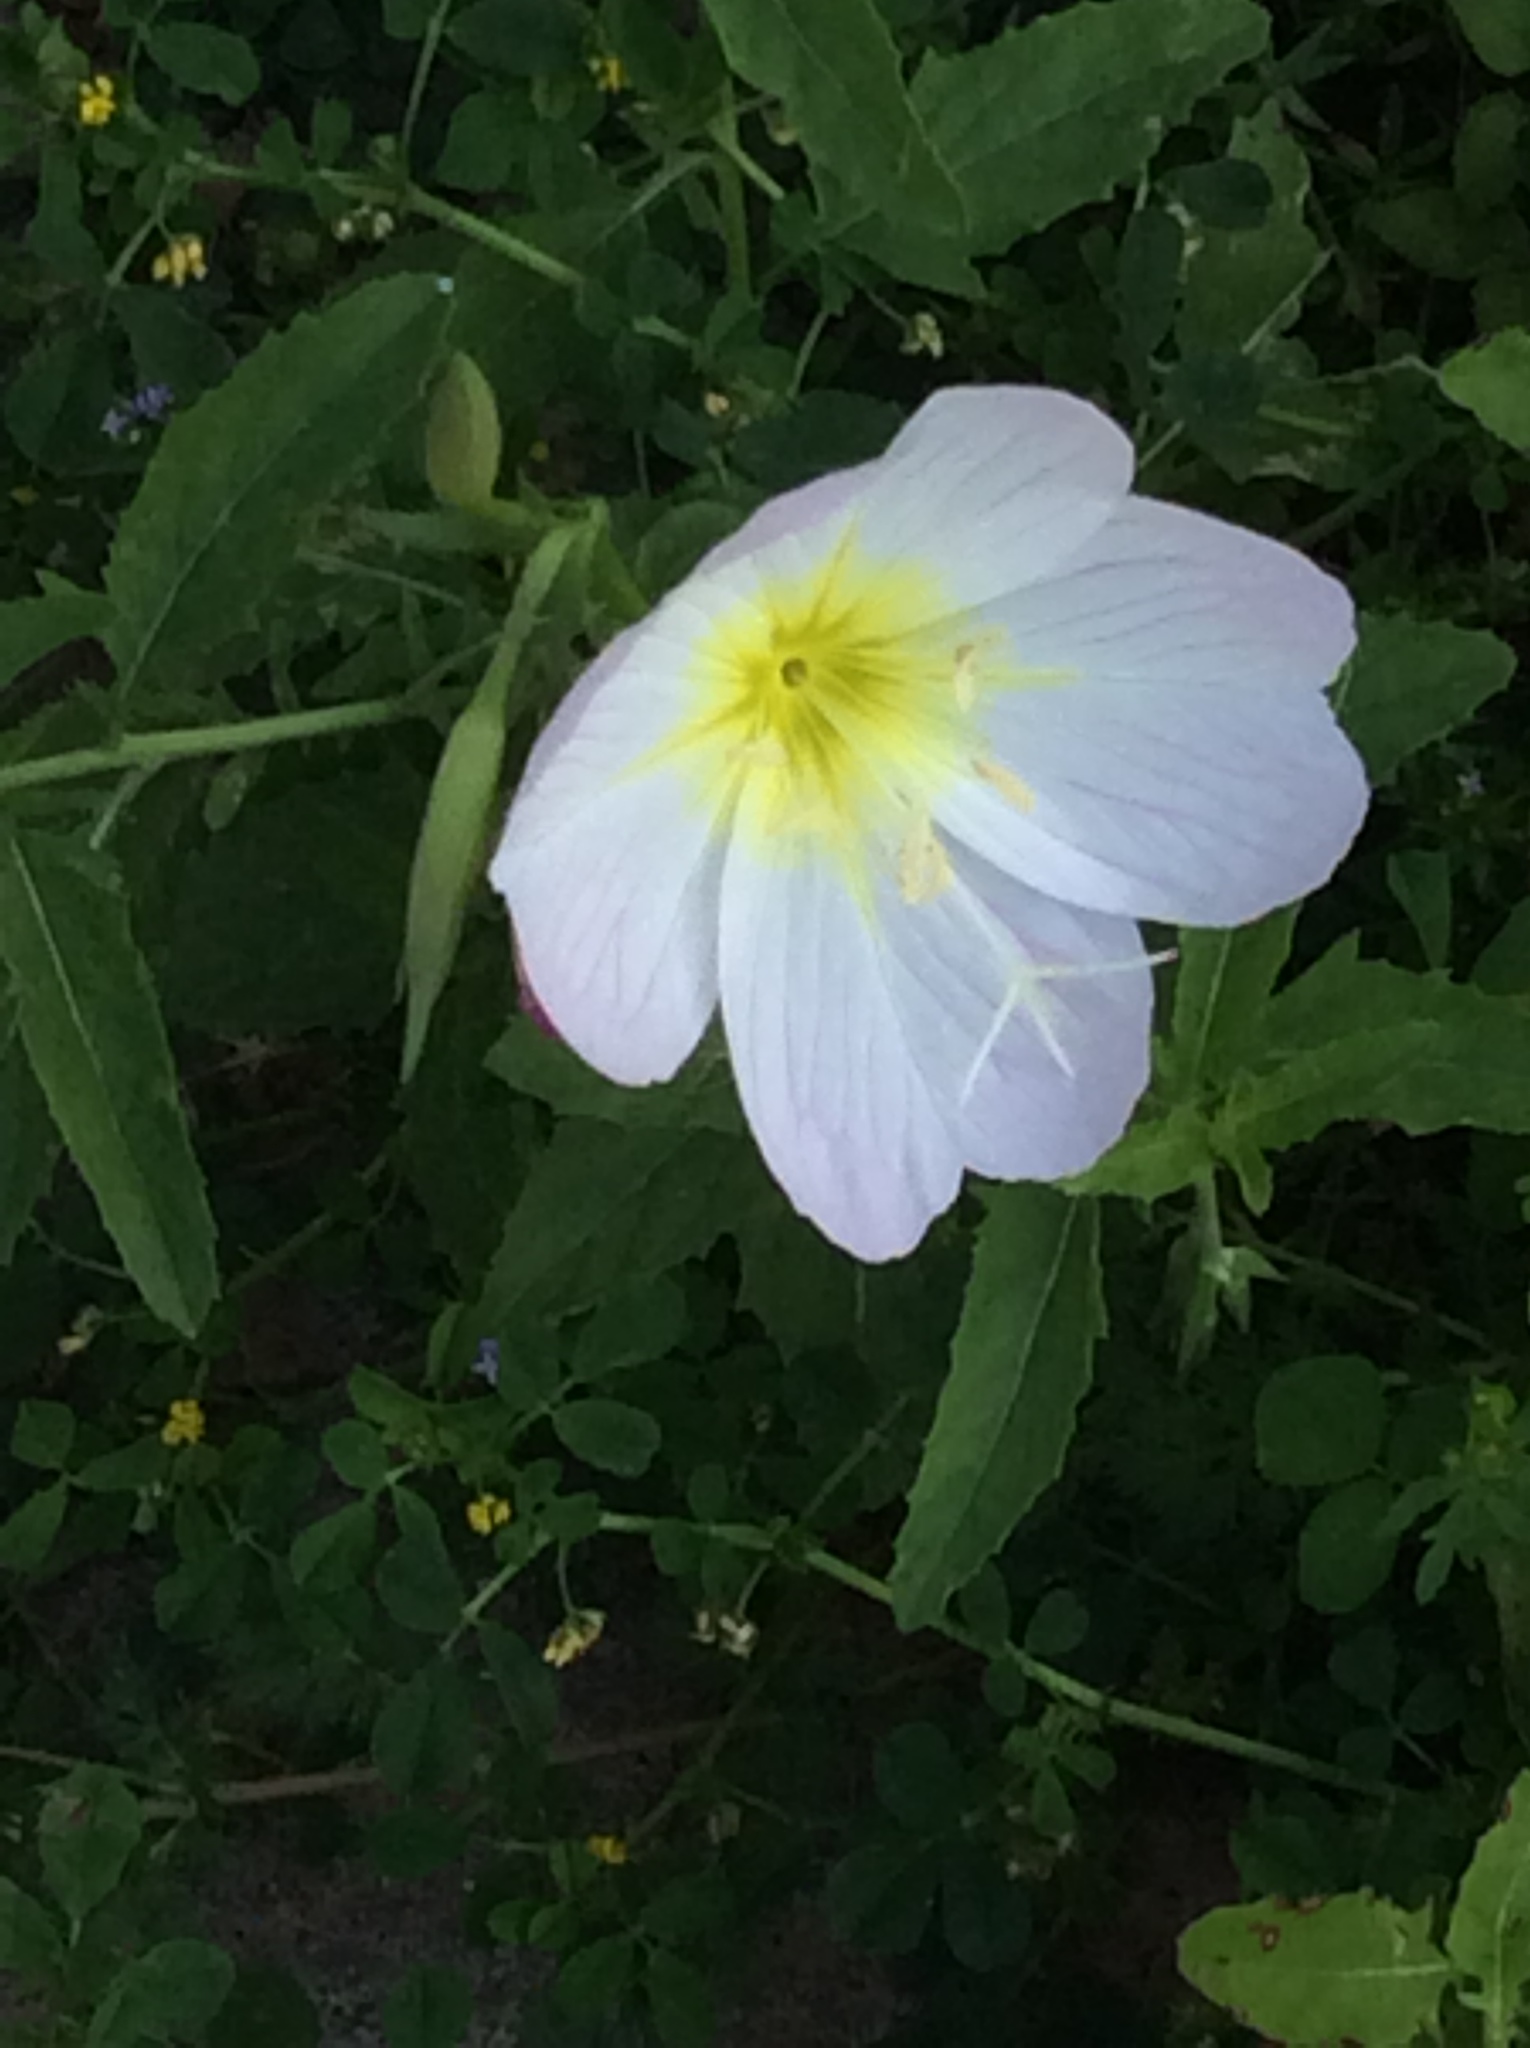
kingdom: Plantae
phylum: Tracheophyta
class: Magnoliopsida
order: Myrtales
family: Onagraceae
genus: Oenothera
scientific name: Oenothera speciosa
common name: White evening-primrose
